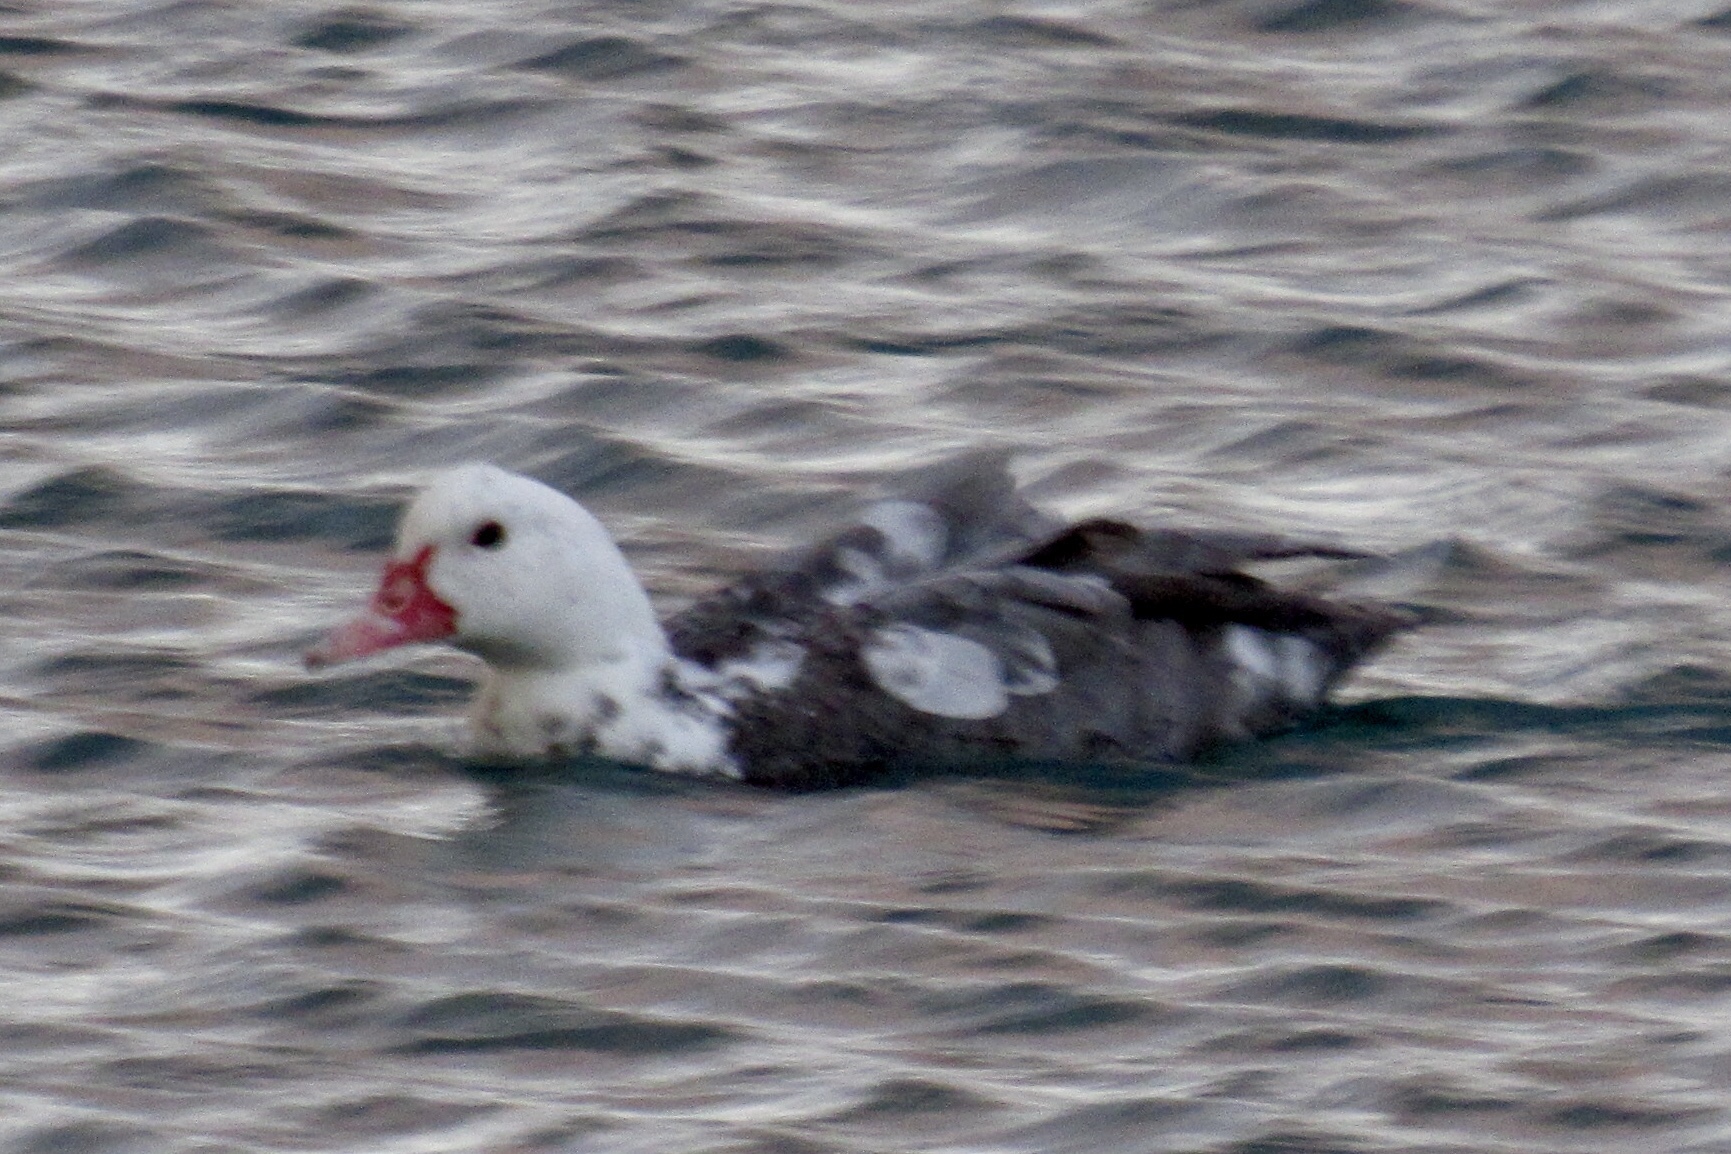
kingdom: Animalia
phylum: Chordata
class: Aves
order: Anseriformes
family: Anatidae
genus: Cairina
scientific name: Cairina moschata
